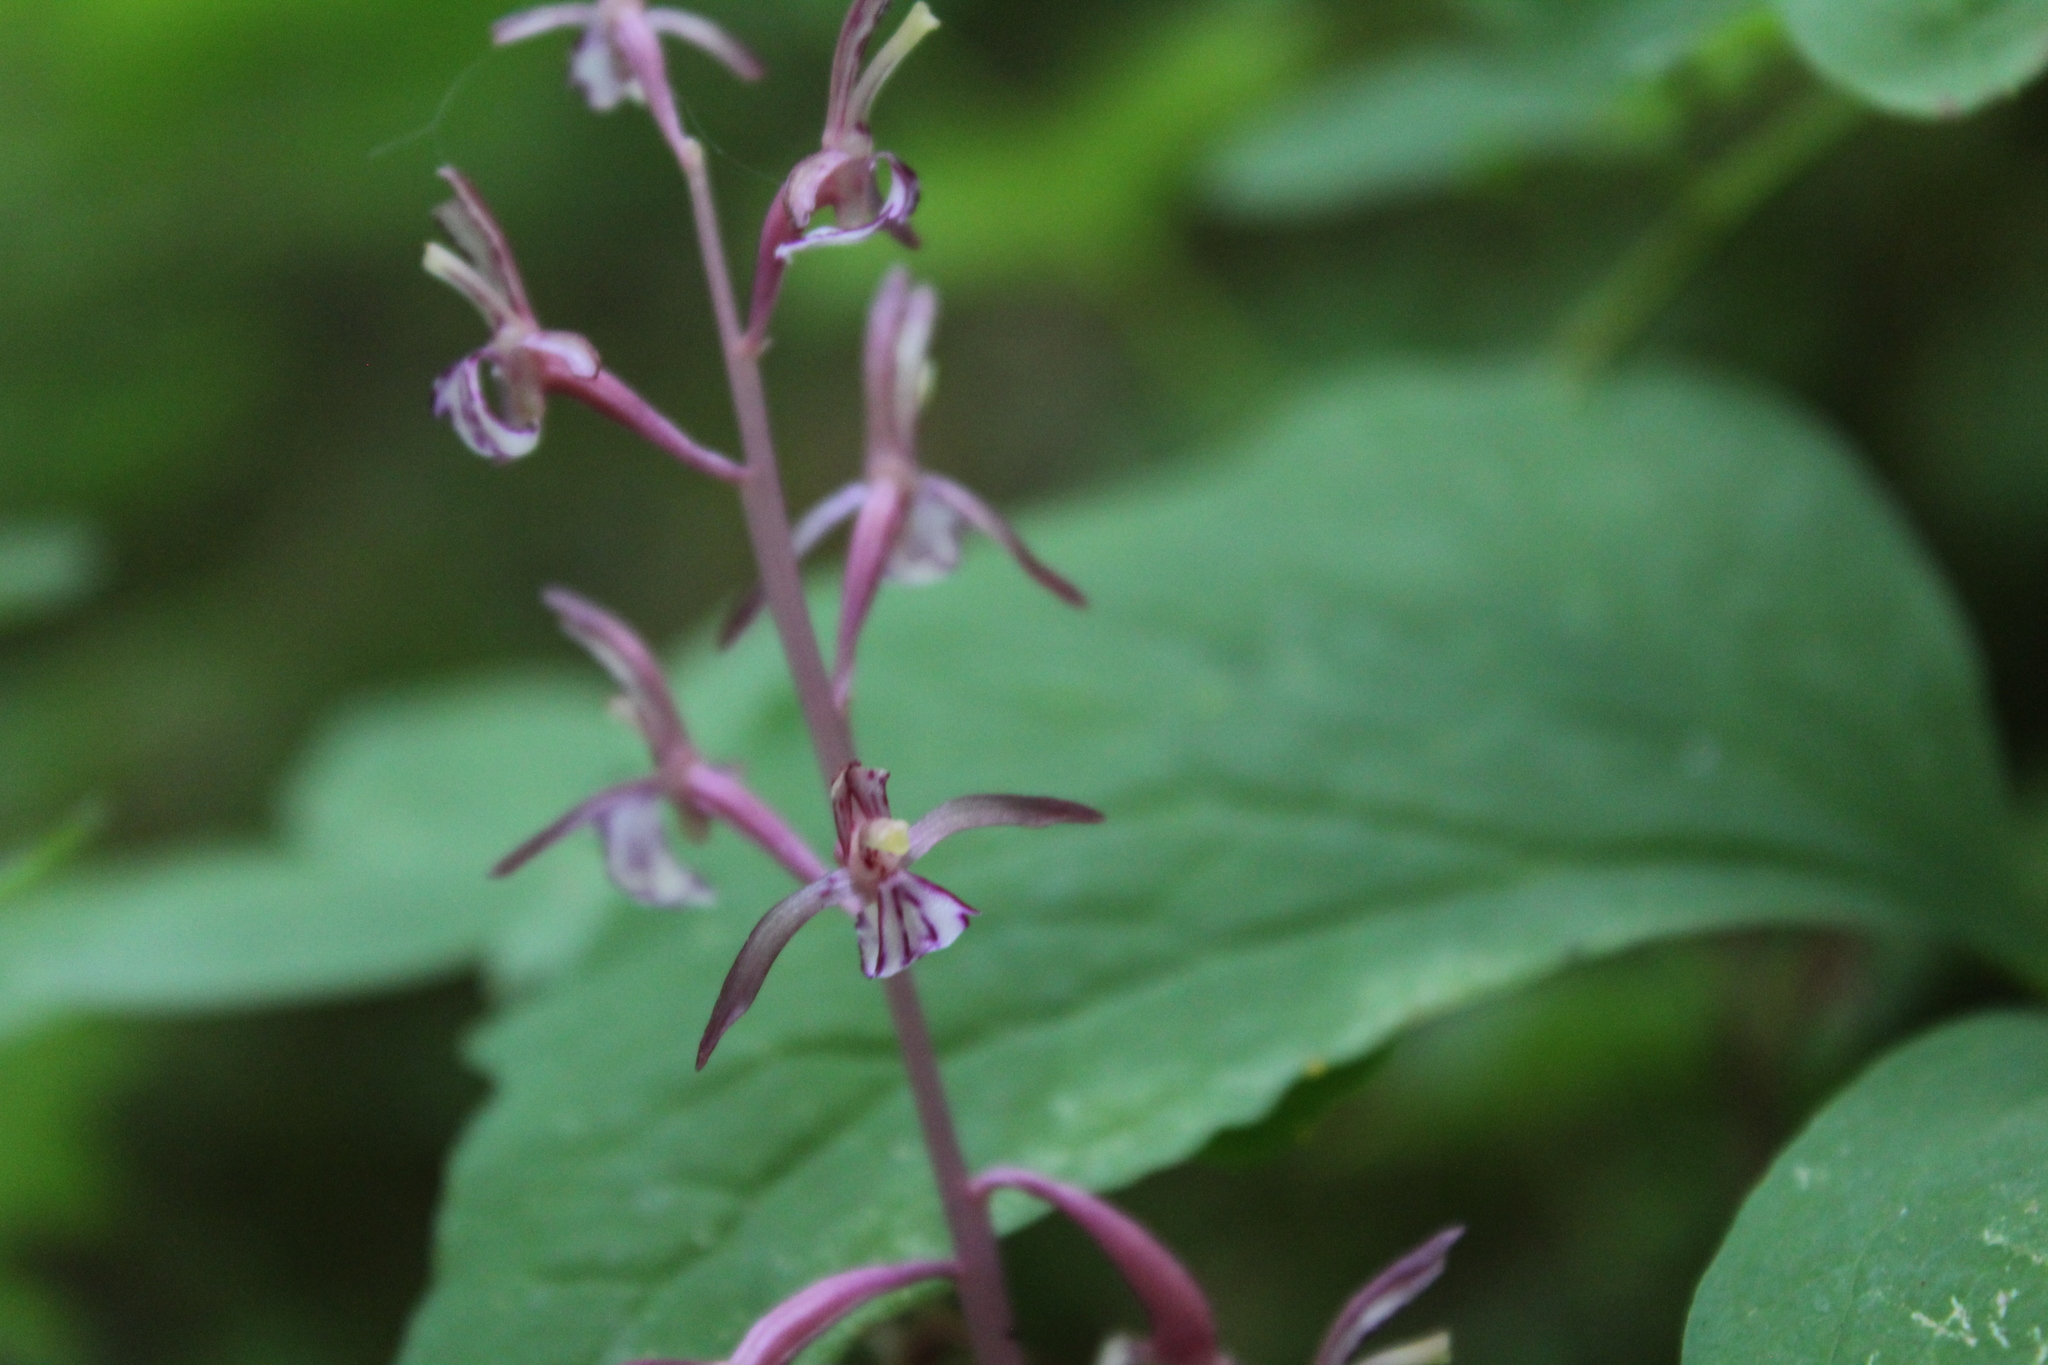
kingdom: Plantae
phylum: Tracheophyta
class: Liliopsida
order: Asparagales
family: Orchidaceae
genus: Corallorhiza
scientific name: Corallorhiza mertensiana
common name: Pacific coralroot
